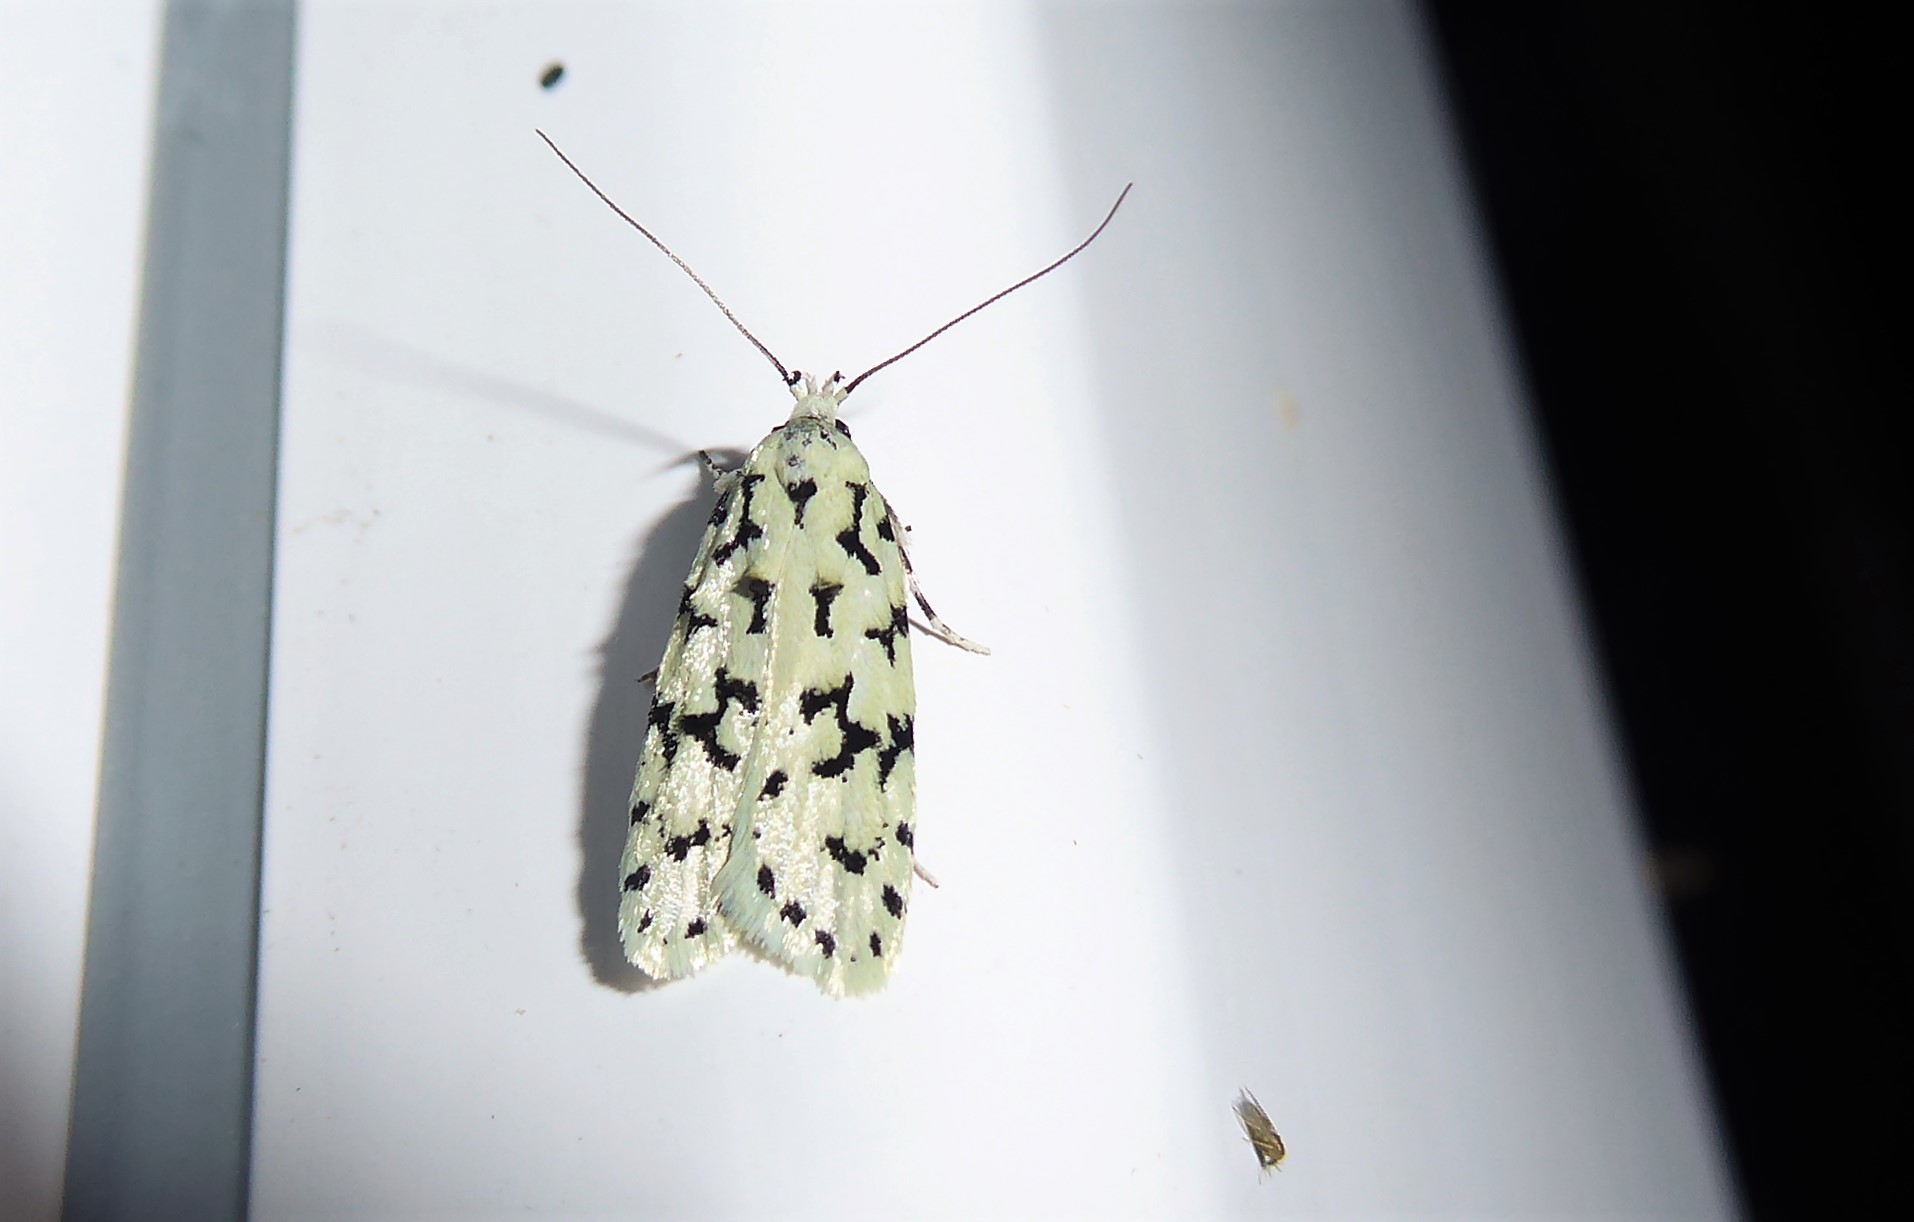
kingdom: Animalia
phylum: Arthropoda
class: Insecta
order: Lepidoptera
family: Oecophoridae
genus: Izatha
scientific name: Izatha huttoni
